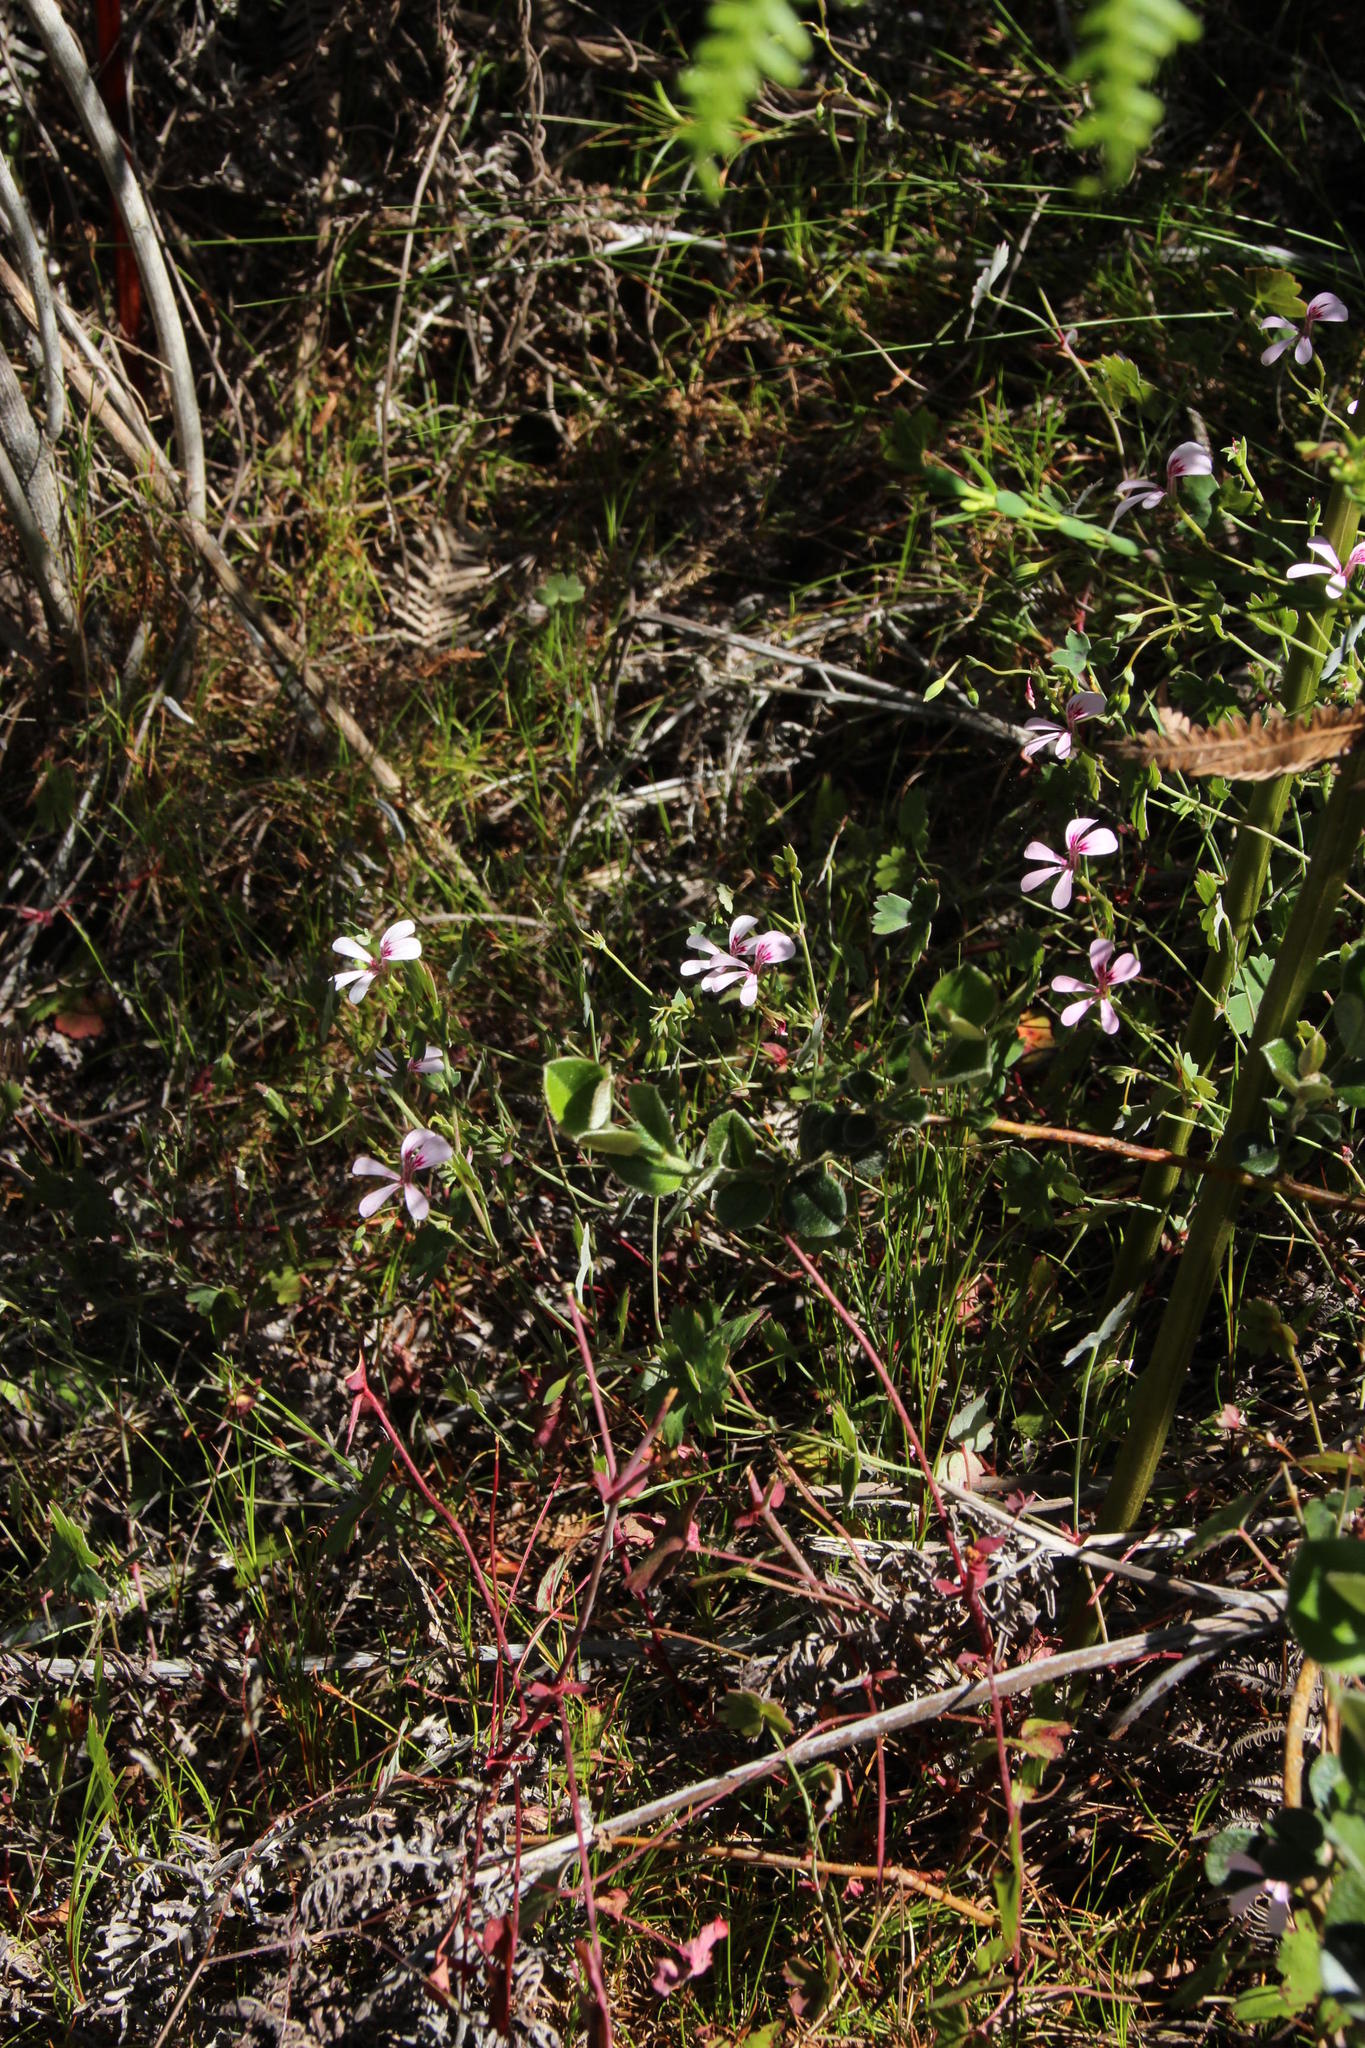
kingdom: Plantae
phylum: Tracheophyta
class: Magnoliopsida
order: Geraniales
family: Geraniaceae
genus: Pelargonium
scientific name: Pelargonium patulum
